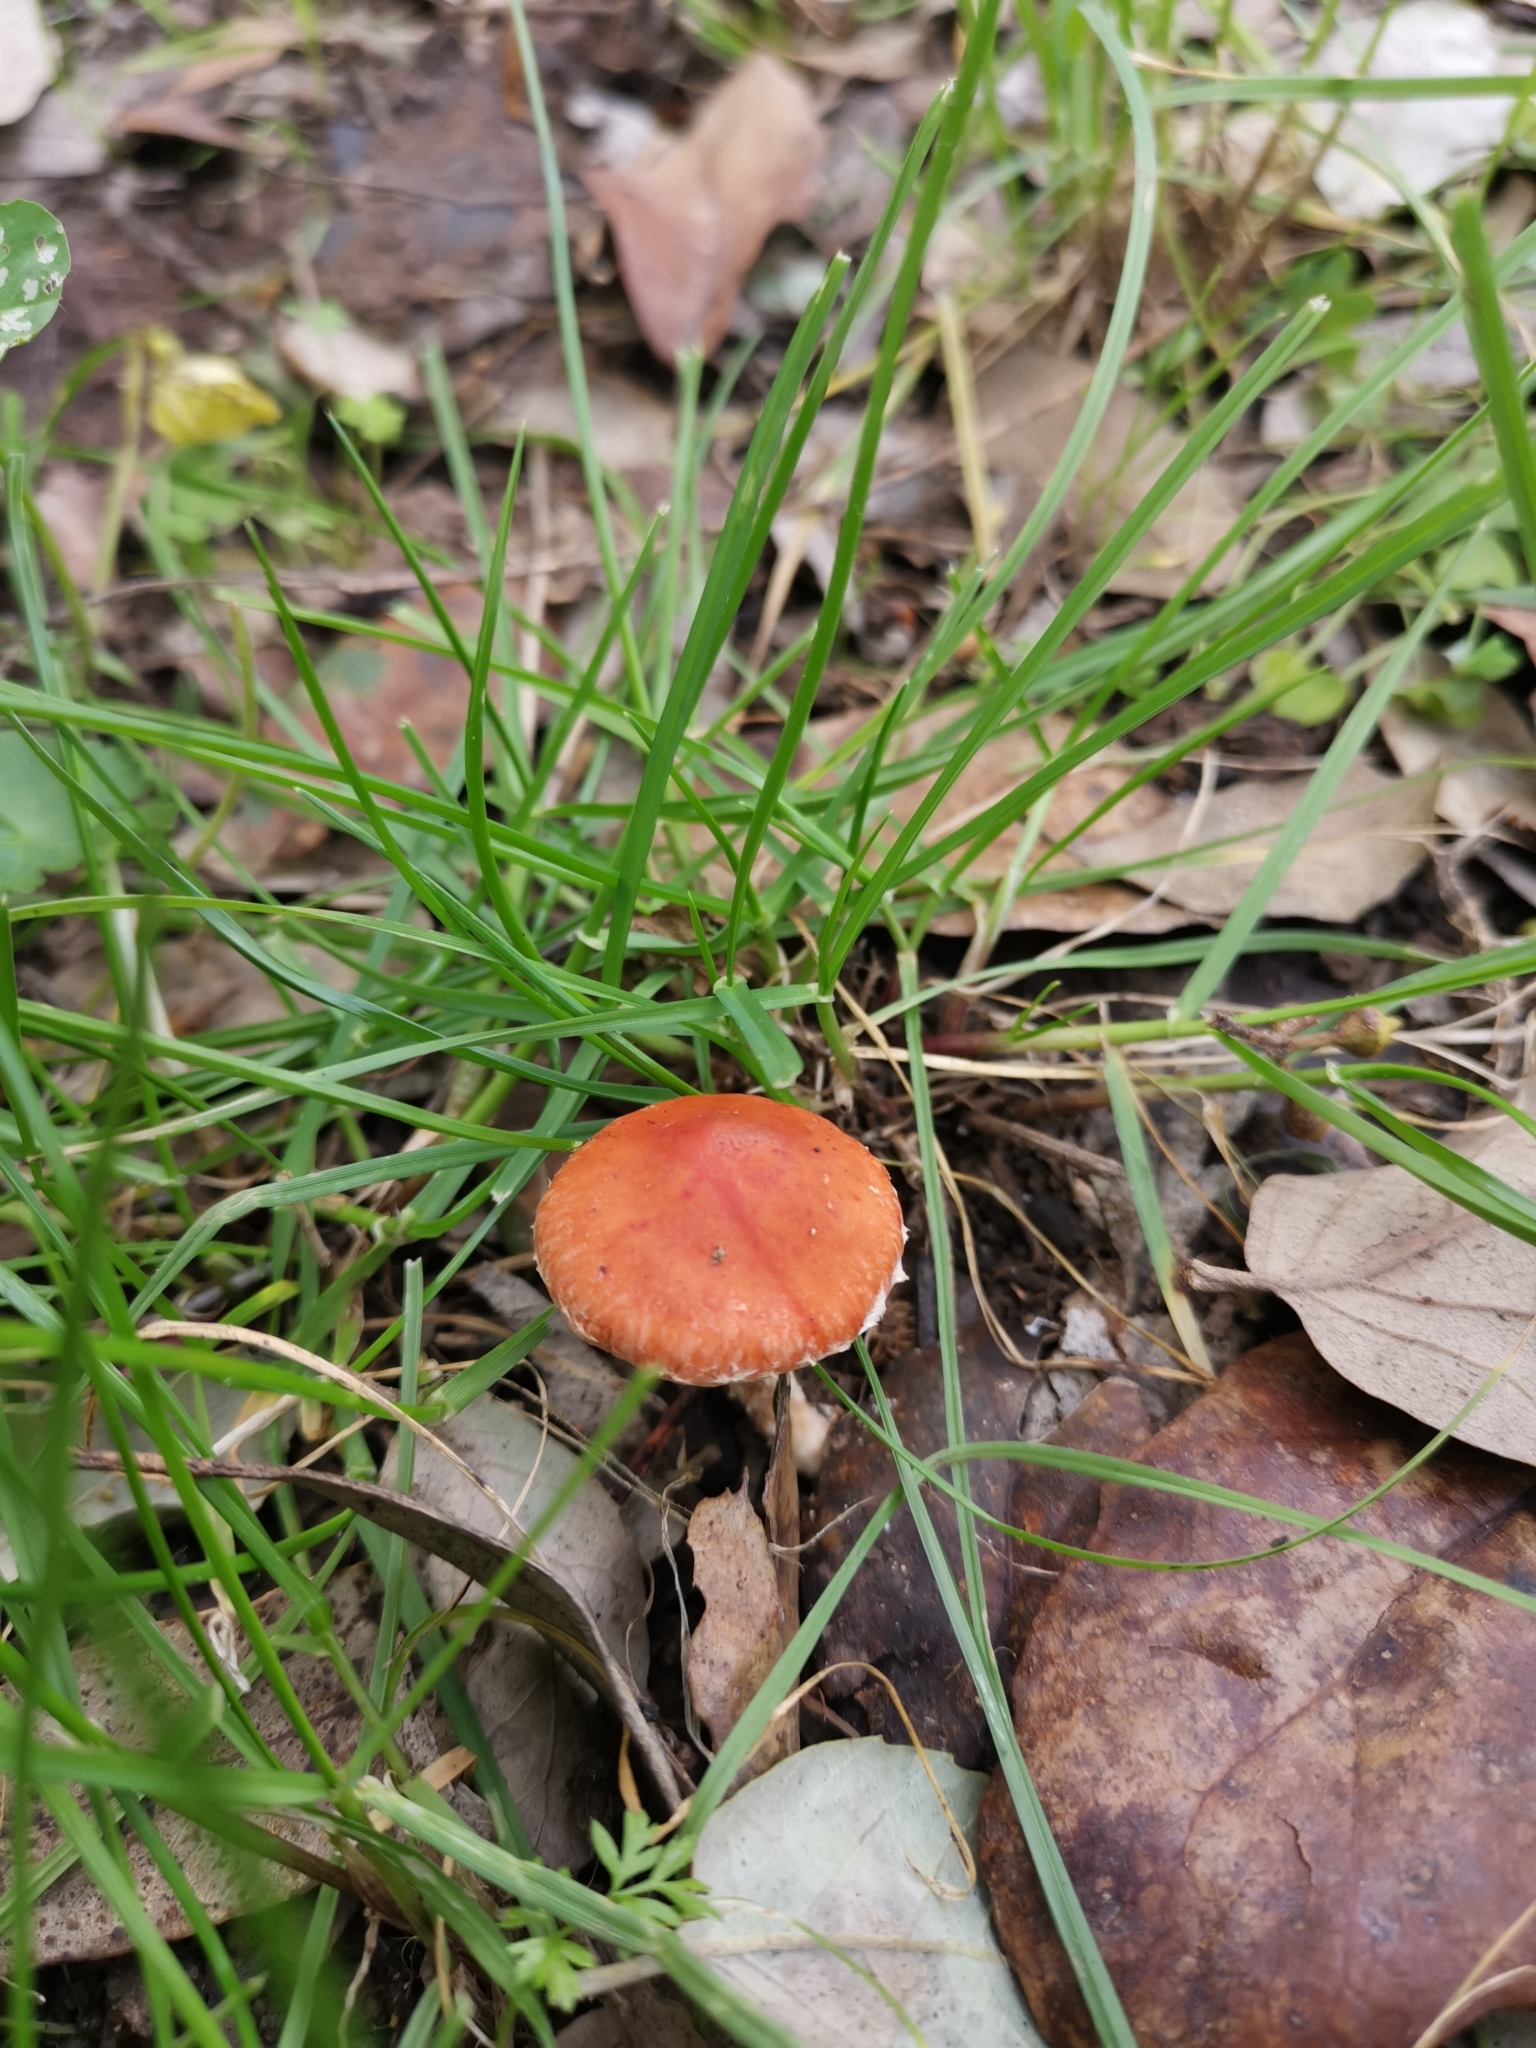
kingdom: Fungi
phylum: Basidiomycota
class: Agaricomycetes
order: Agaricales
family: Strophariaceae
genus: Leratiomyces
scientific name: Leratiomyces ceres
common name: Redlead roundhead
